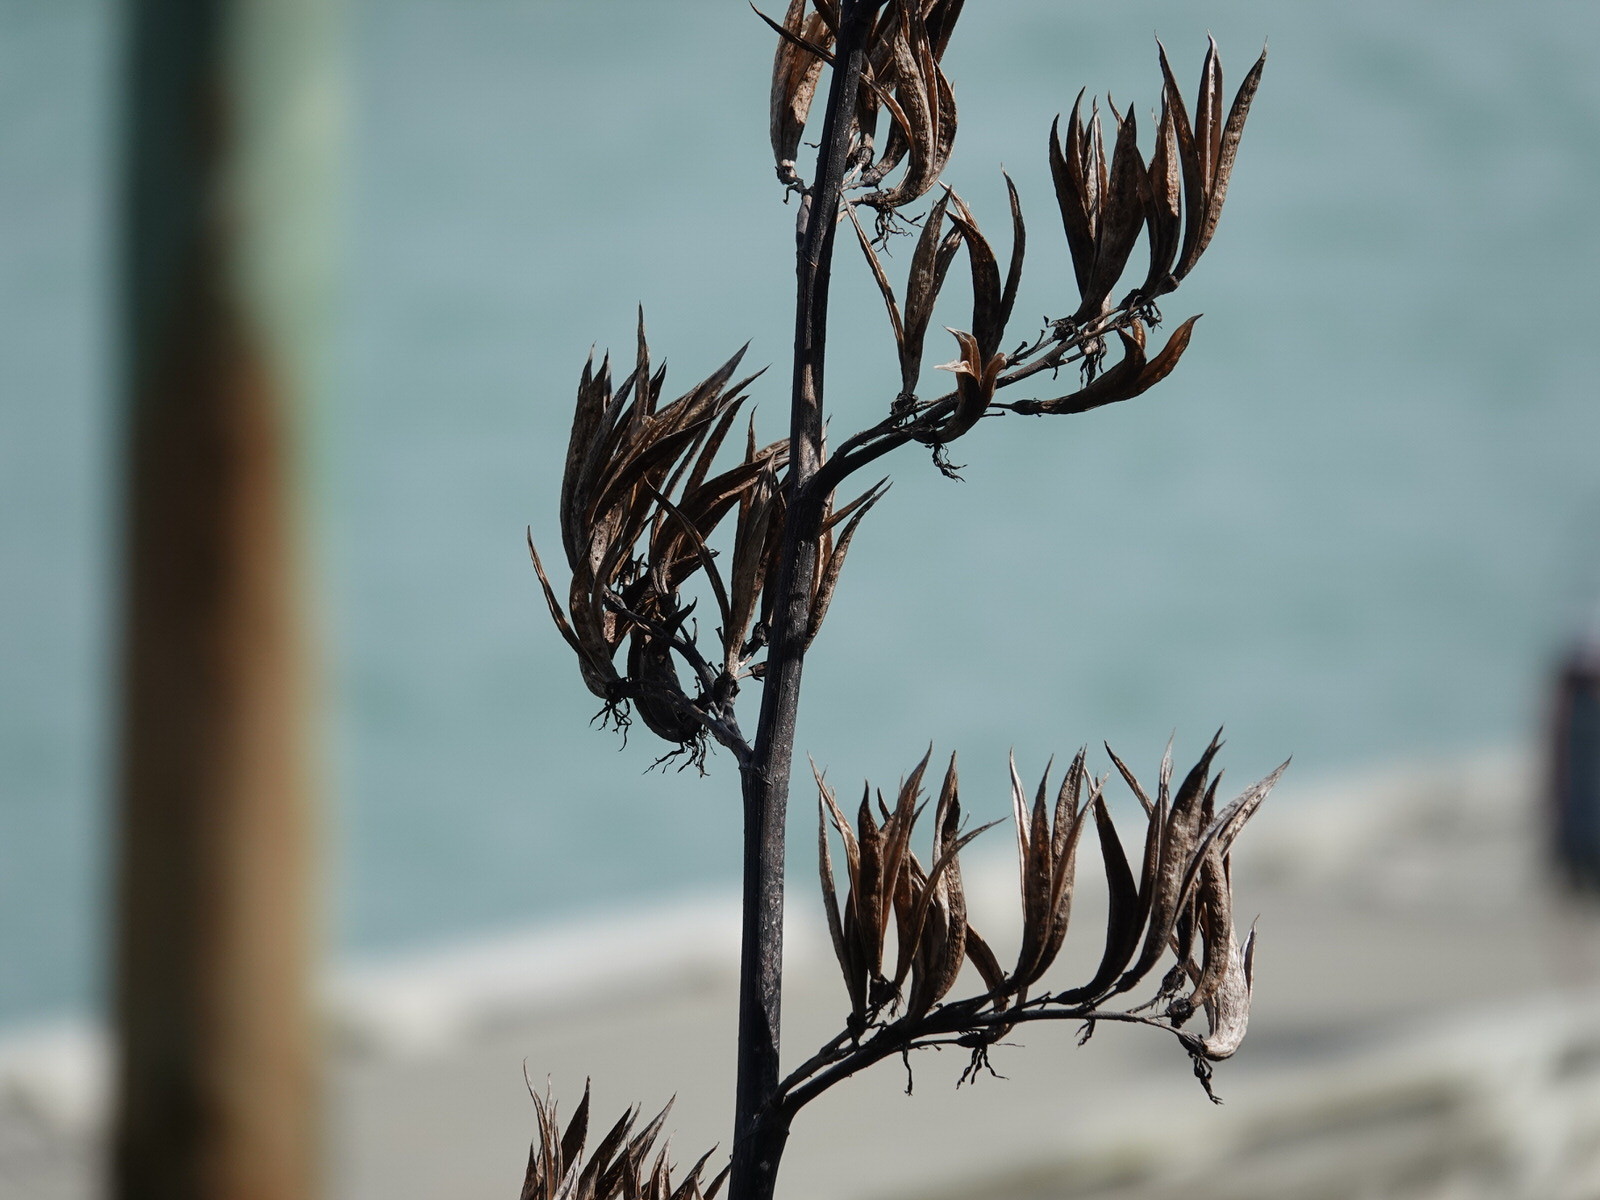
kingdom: Plantae
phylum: Tracheophyta
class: Liliopsida
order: Asparagales
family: Asphodelaceae
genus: Phormium
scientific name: Phormium tenax
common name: New zealand flax
